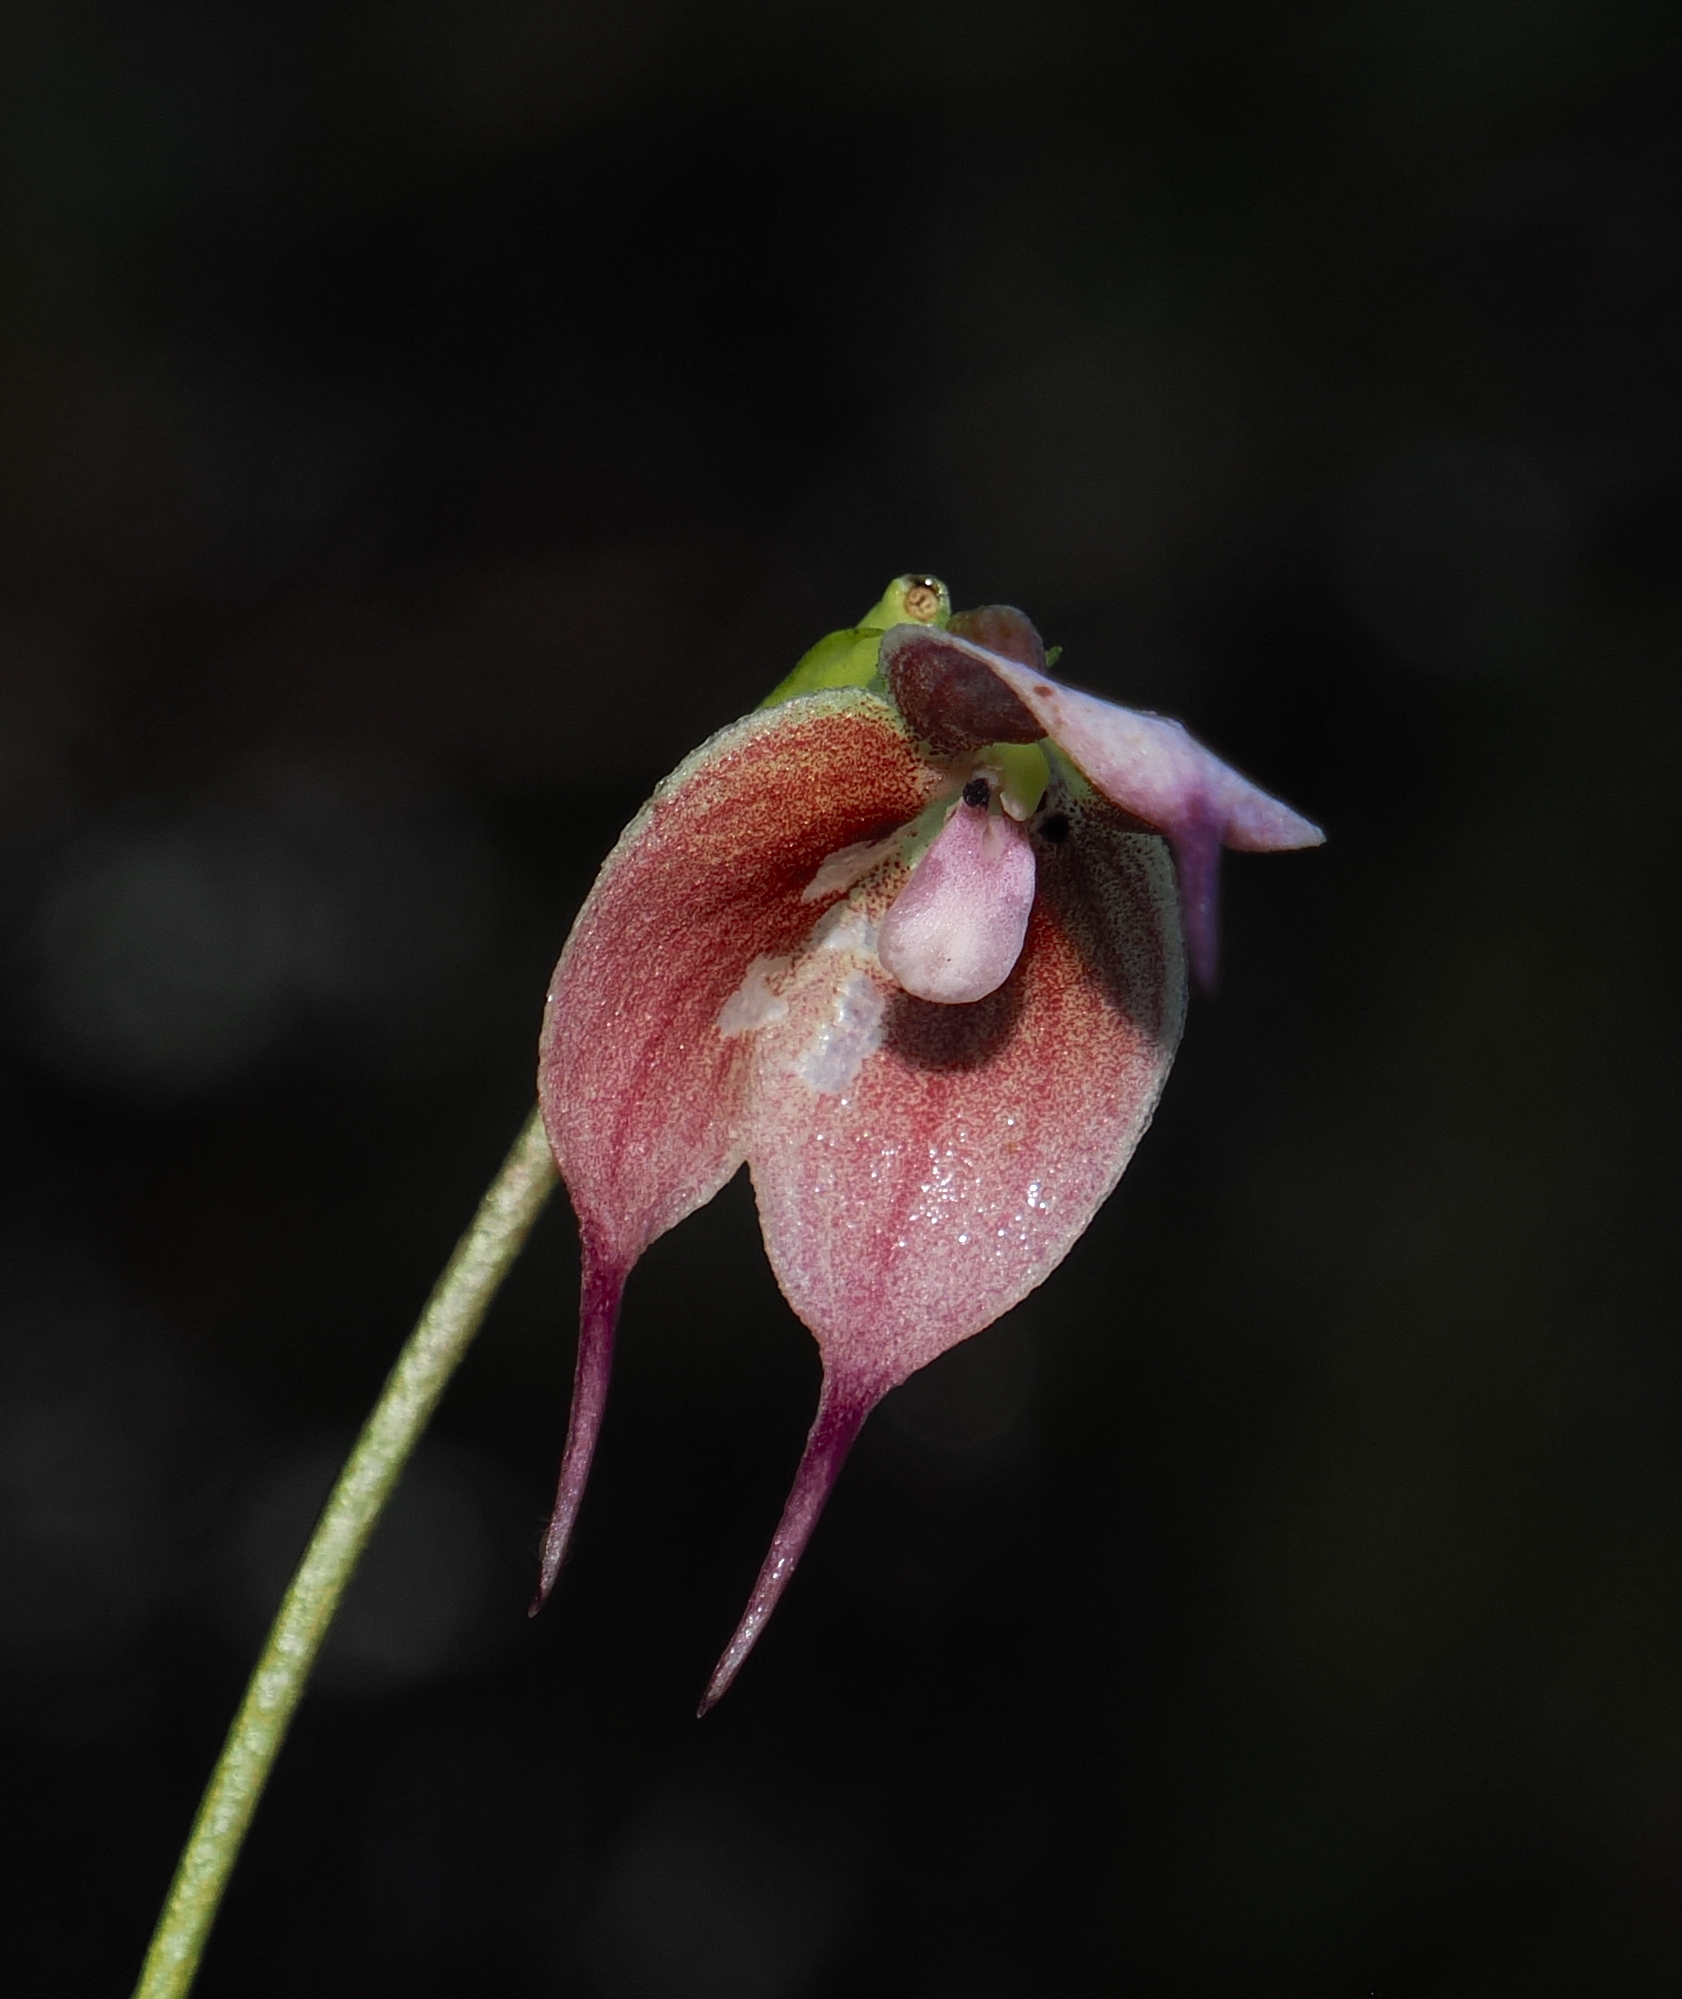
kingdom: Plantae
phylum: Tracheophyta
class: Liliopsida
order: Asparagales
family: Orchidaceae
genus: Dracula
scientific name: Dracula iricolor
